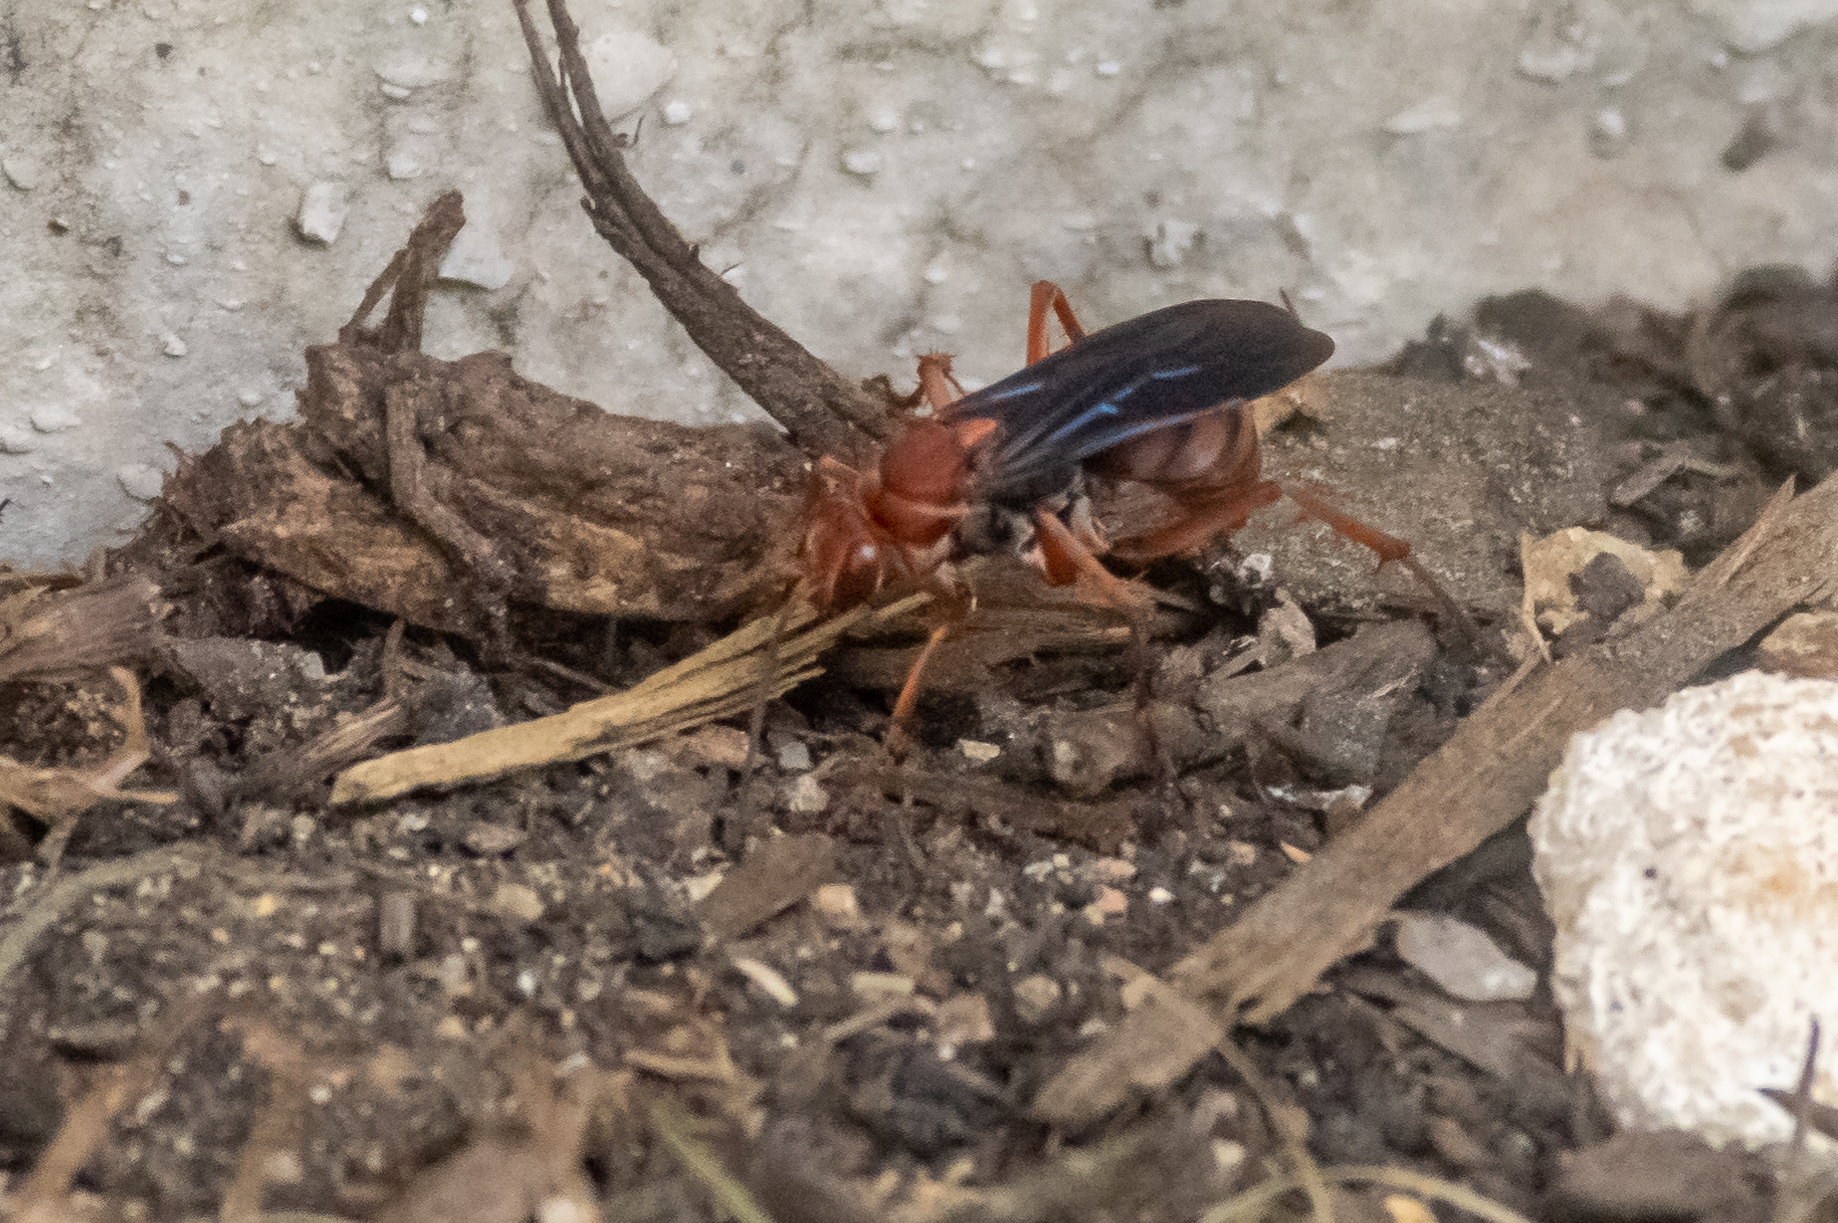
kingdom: Animalia
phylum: Arthropoda
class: Insecta
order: Hymenoptera
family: Pompilidae
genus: Tachypompilus
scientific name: Tachypompilus ferrugineus
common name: Rusty spider wasp
